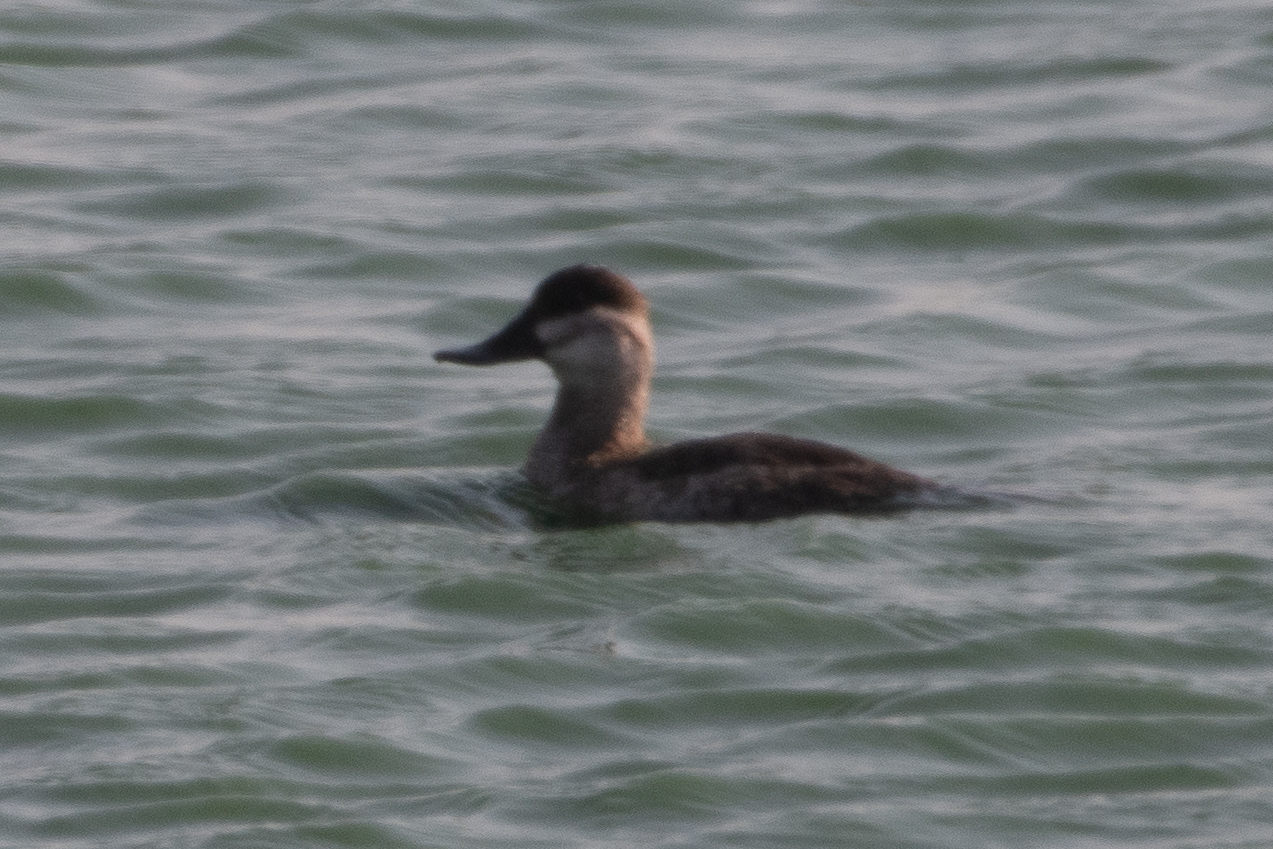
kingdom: Animalia
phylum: Chordata
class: Aves
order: Anseriformes
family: Anatidae
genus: Oxyura
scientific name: Oxyura jamaicensis
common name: Ruddy duck
